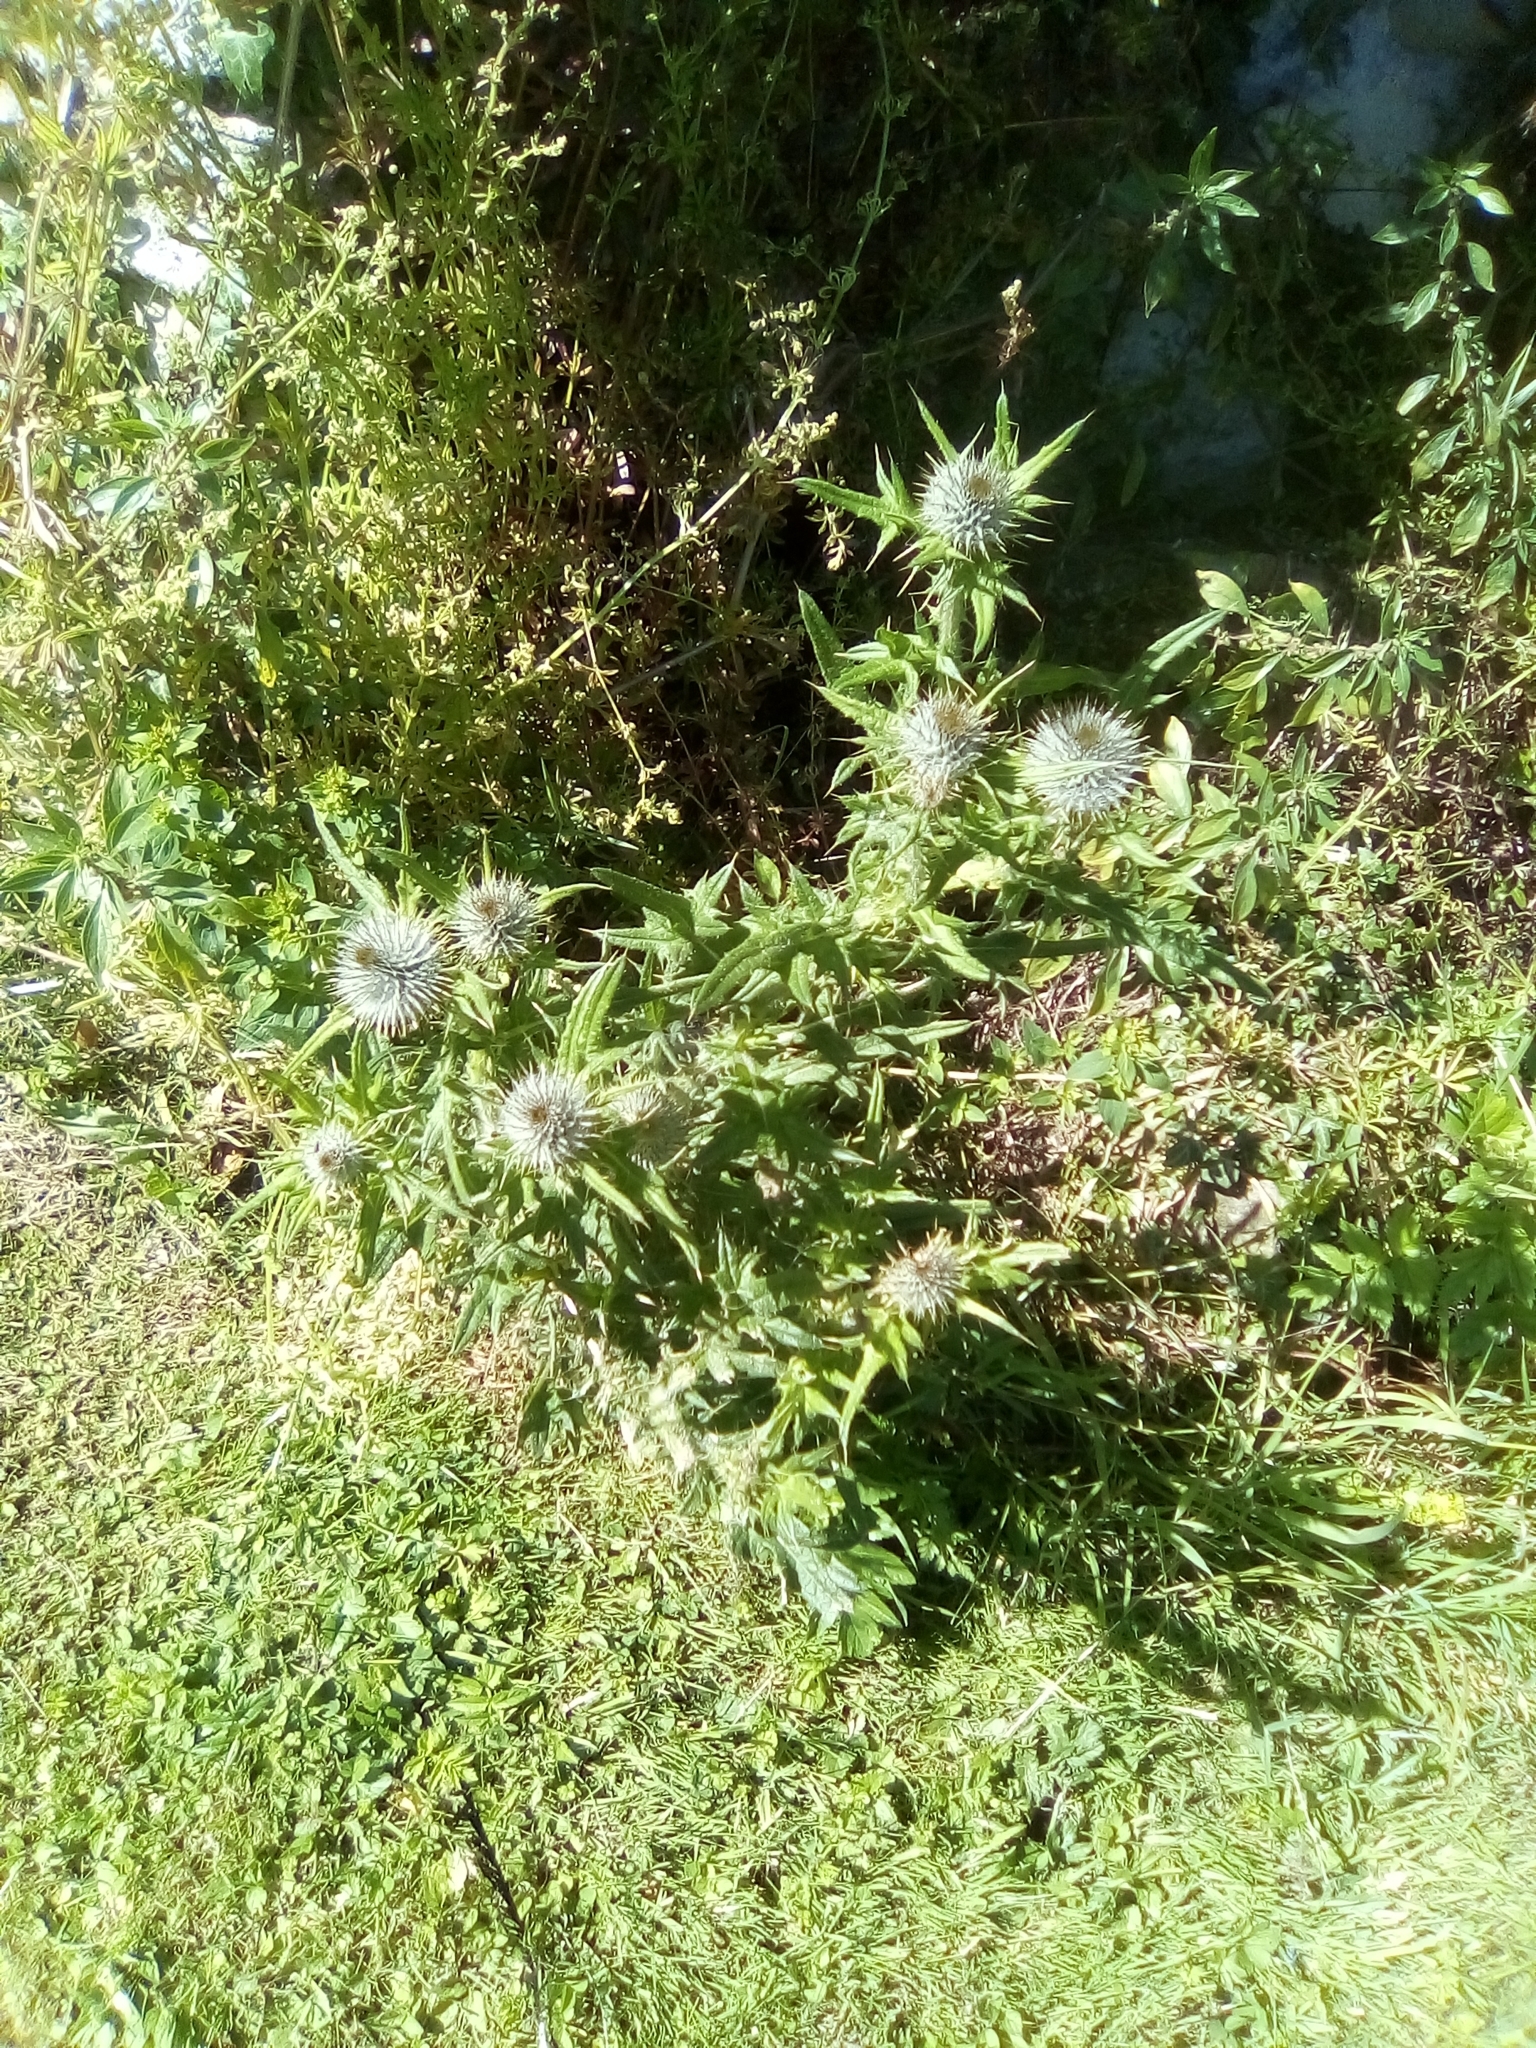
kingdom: Plantae
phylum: Tracheophyta
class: Magnoliopsida
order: Asterales
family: Asteraceae
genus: Cirsium
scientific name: Cirsium vulgare
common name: Bull thistle
